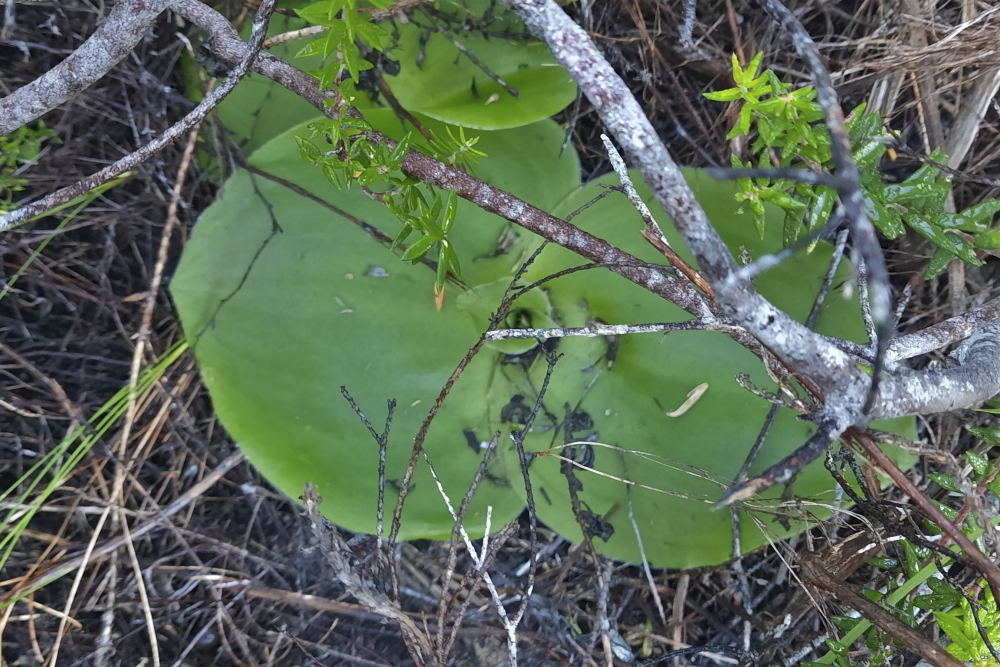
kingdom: Plantae
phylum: Tracheophyta
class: Liliopsida
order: Asparagales
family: Orchidaceae
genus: Satyrium
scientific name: Satyrium princeps
